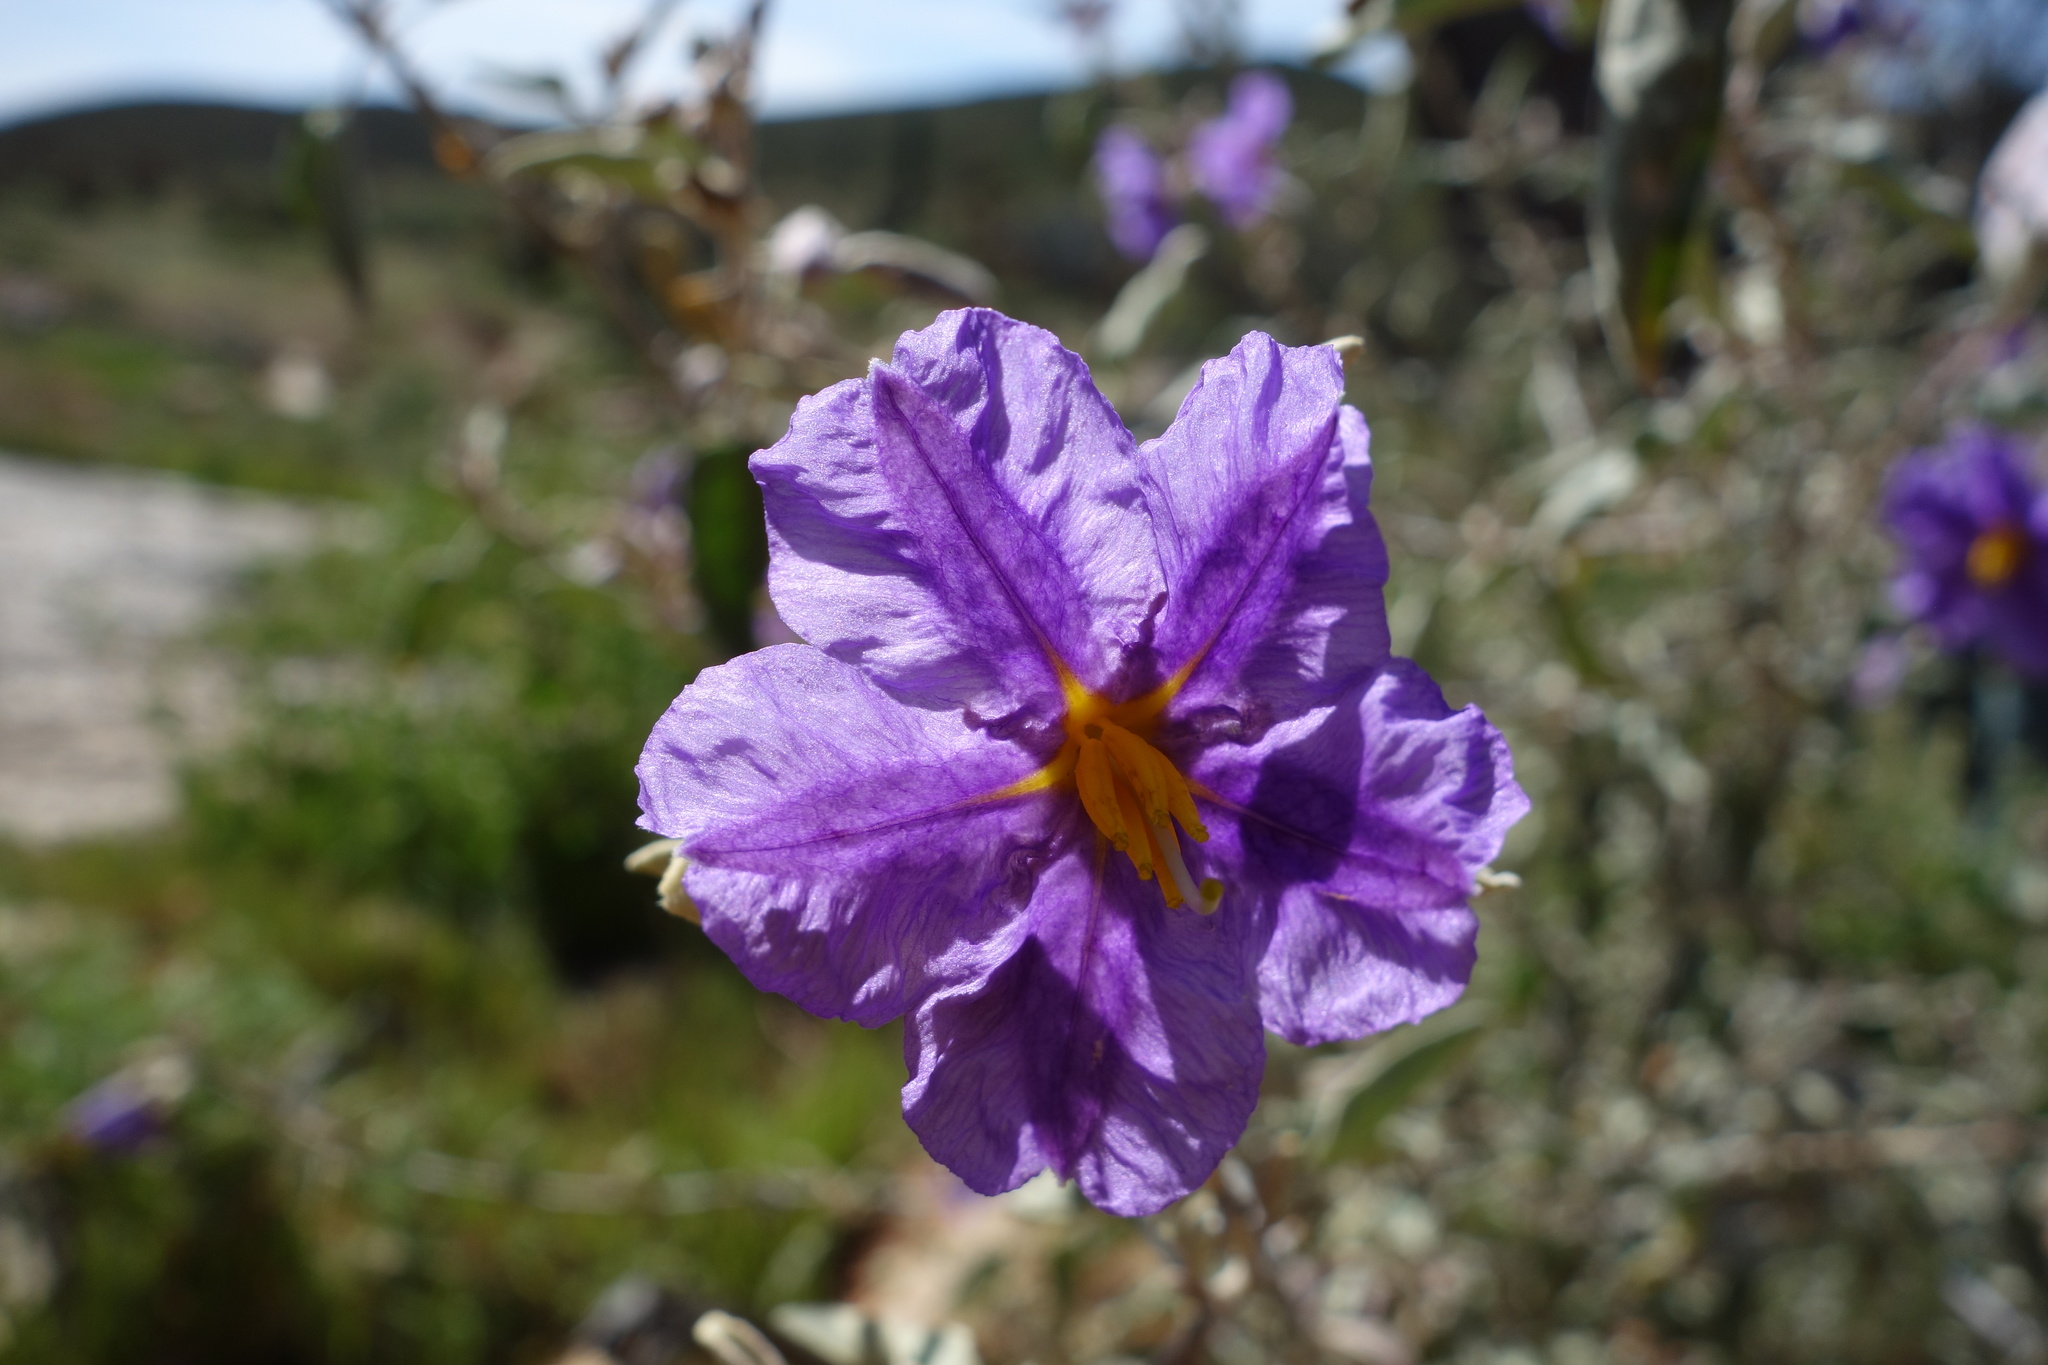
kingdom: Plantae
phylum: Tracheophyta
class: Magnoliopsida
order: Solanales
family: Solanaceae
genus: Solanum
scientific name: Solanum hindsianum
